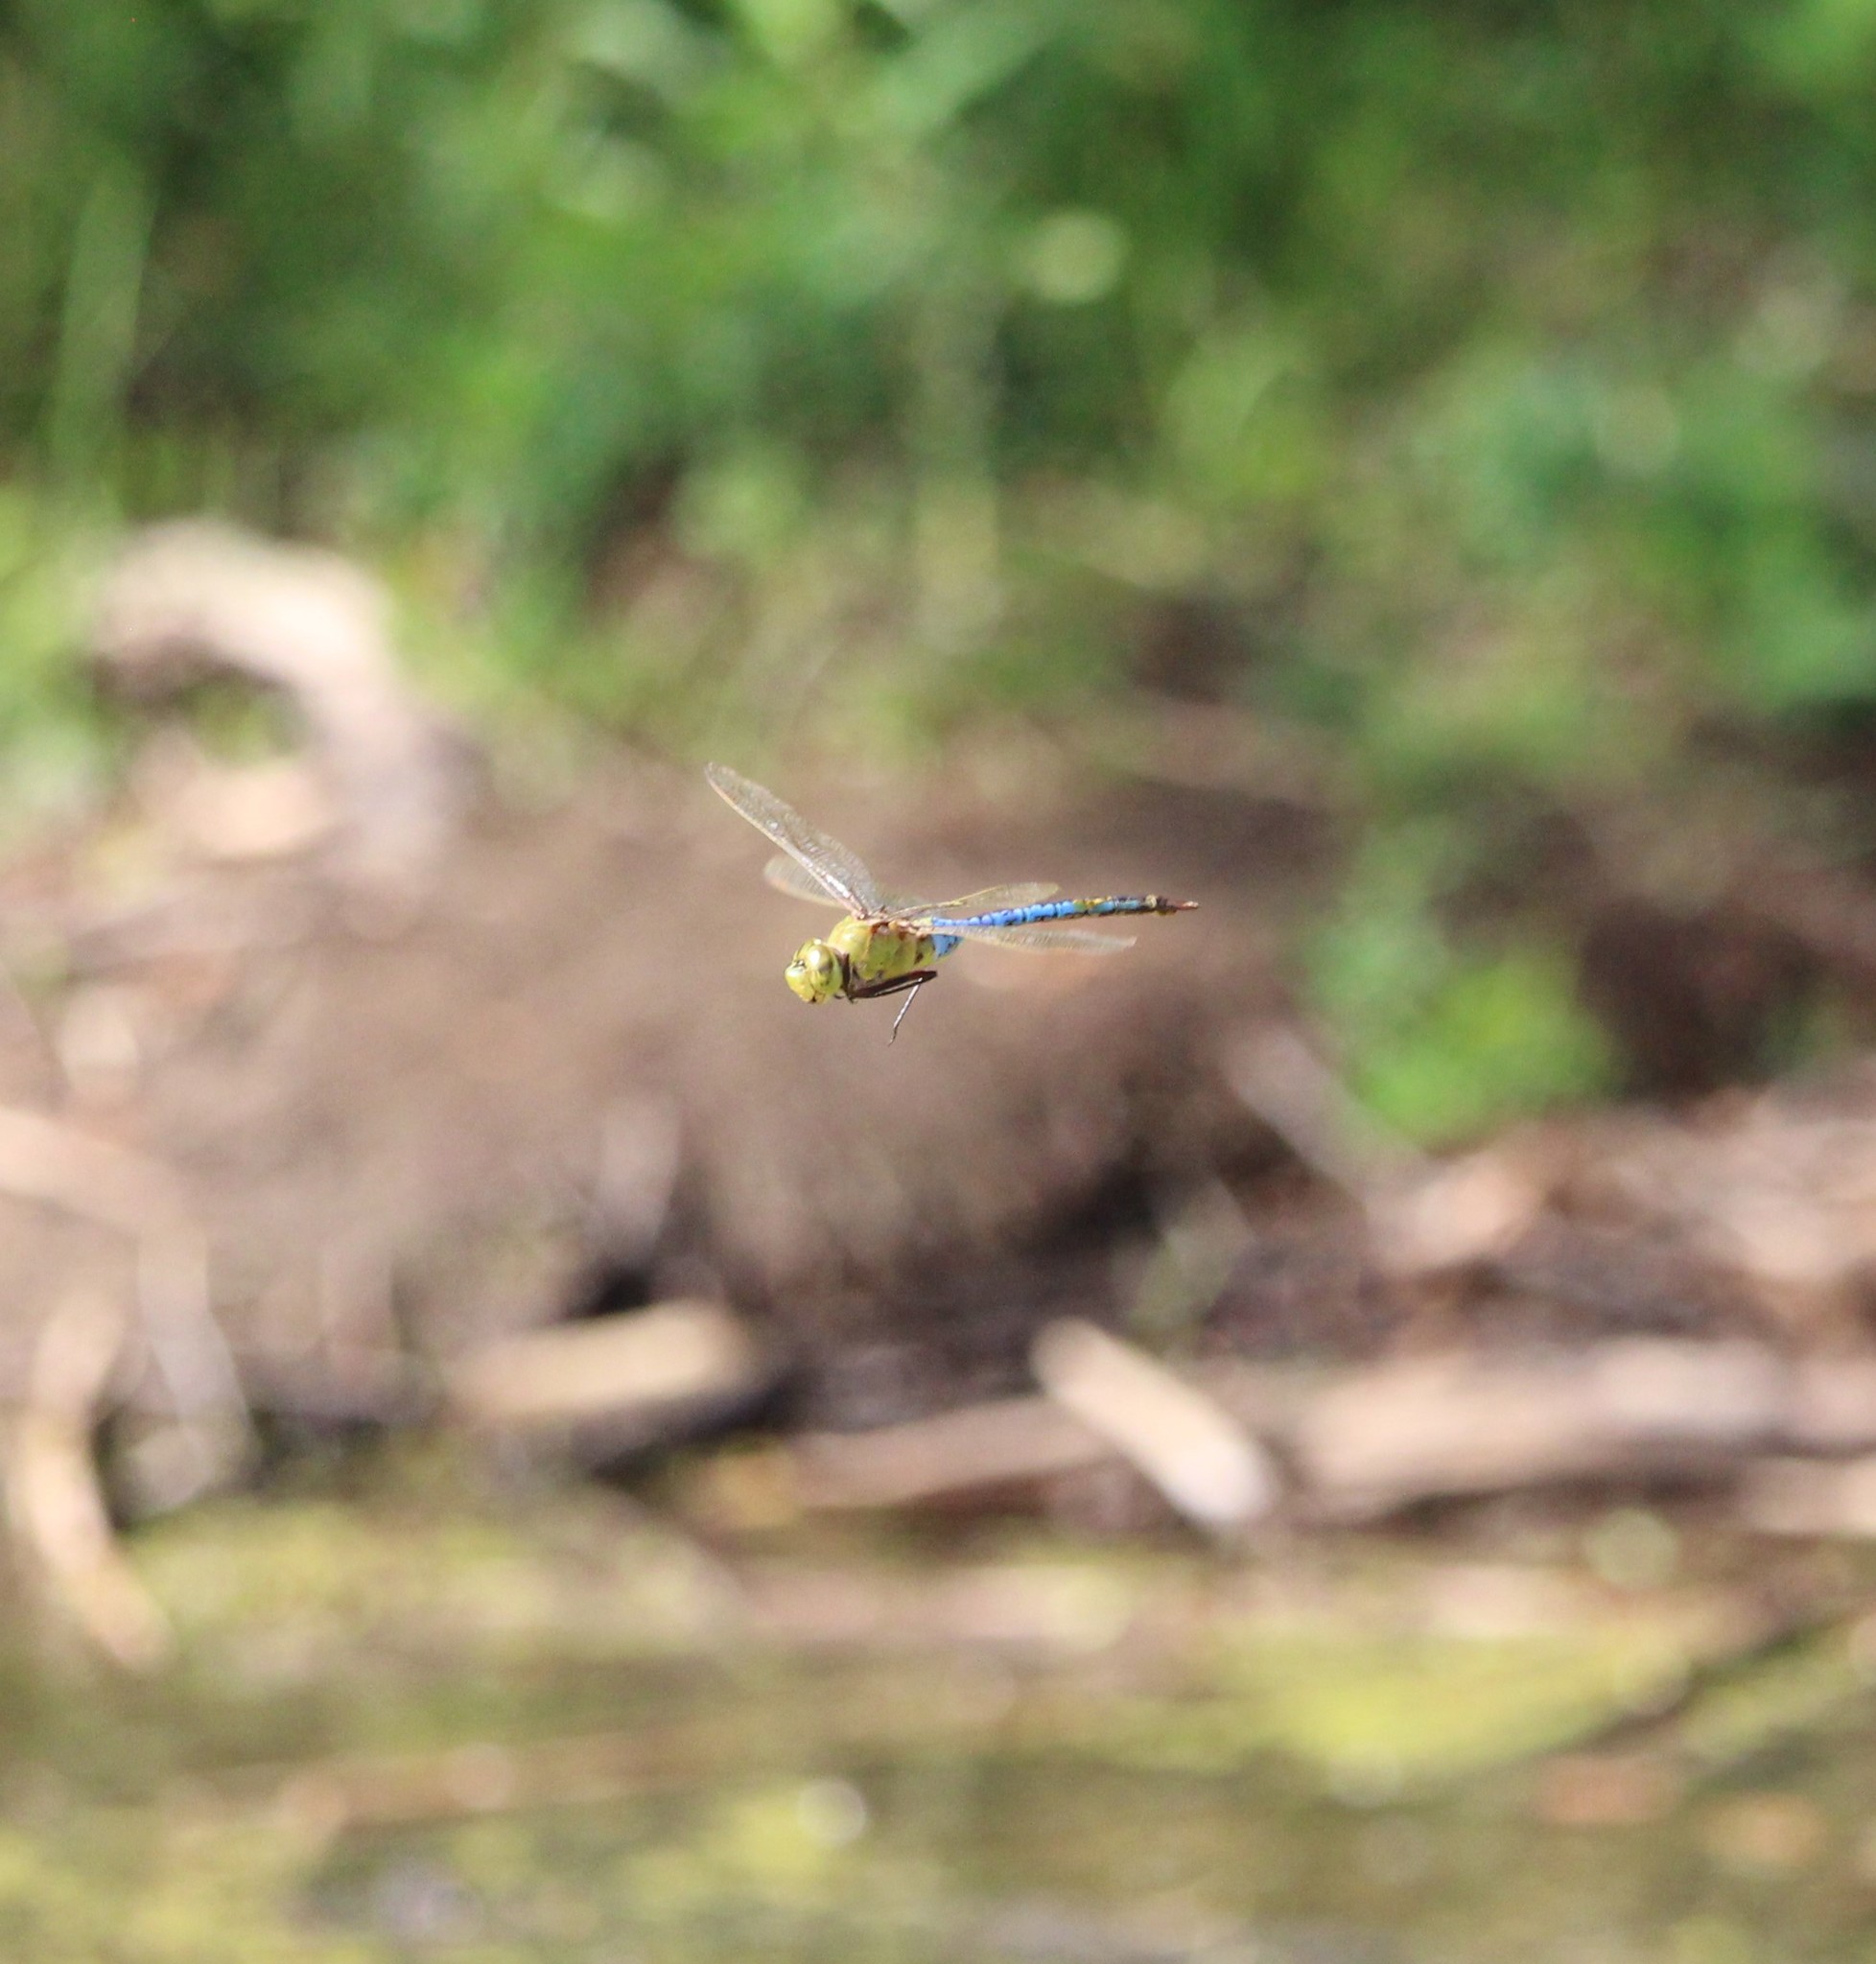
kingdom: Animalia
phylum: Arthropoda
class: Insecta
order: Odonata
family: Aeshnidae
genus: Anax
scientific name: Anax junius
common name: Common green darner
